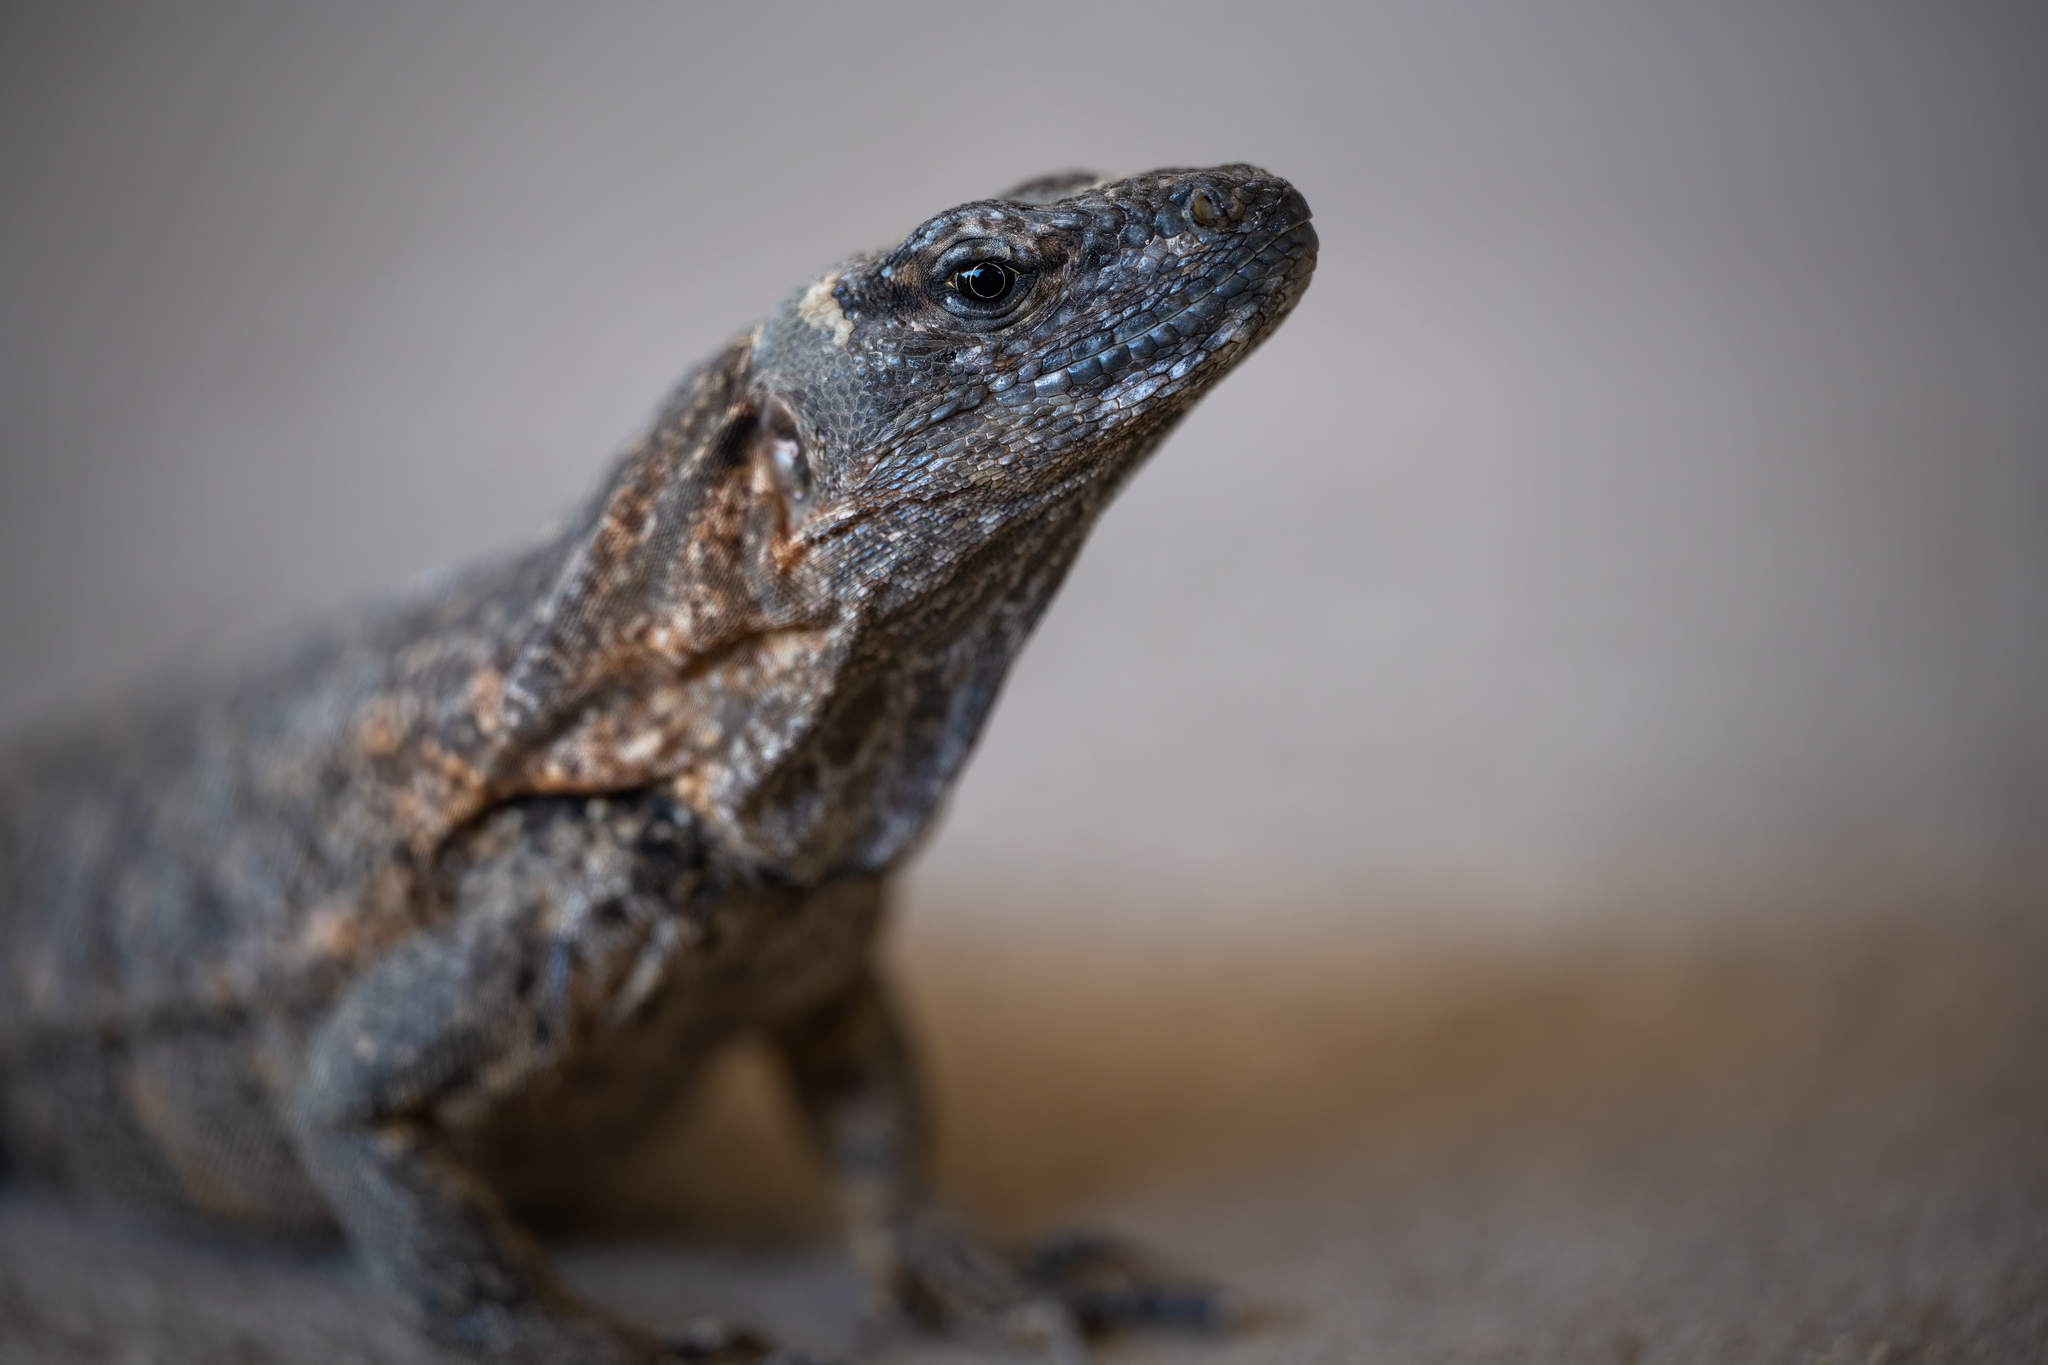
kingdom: Animalia
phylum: Chordata
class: Squamata
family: Iguanidae
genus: Ctenosaura
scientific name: Ctenosaura pectinata
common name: Guerreran spiny-tailed iguana
